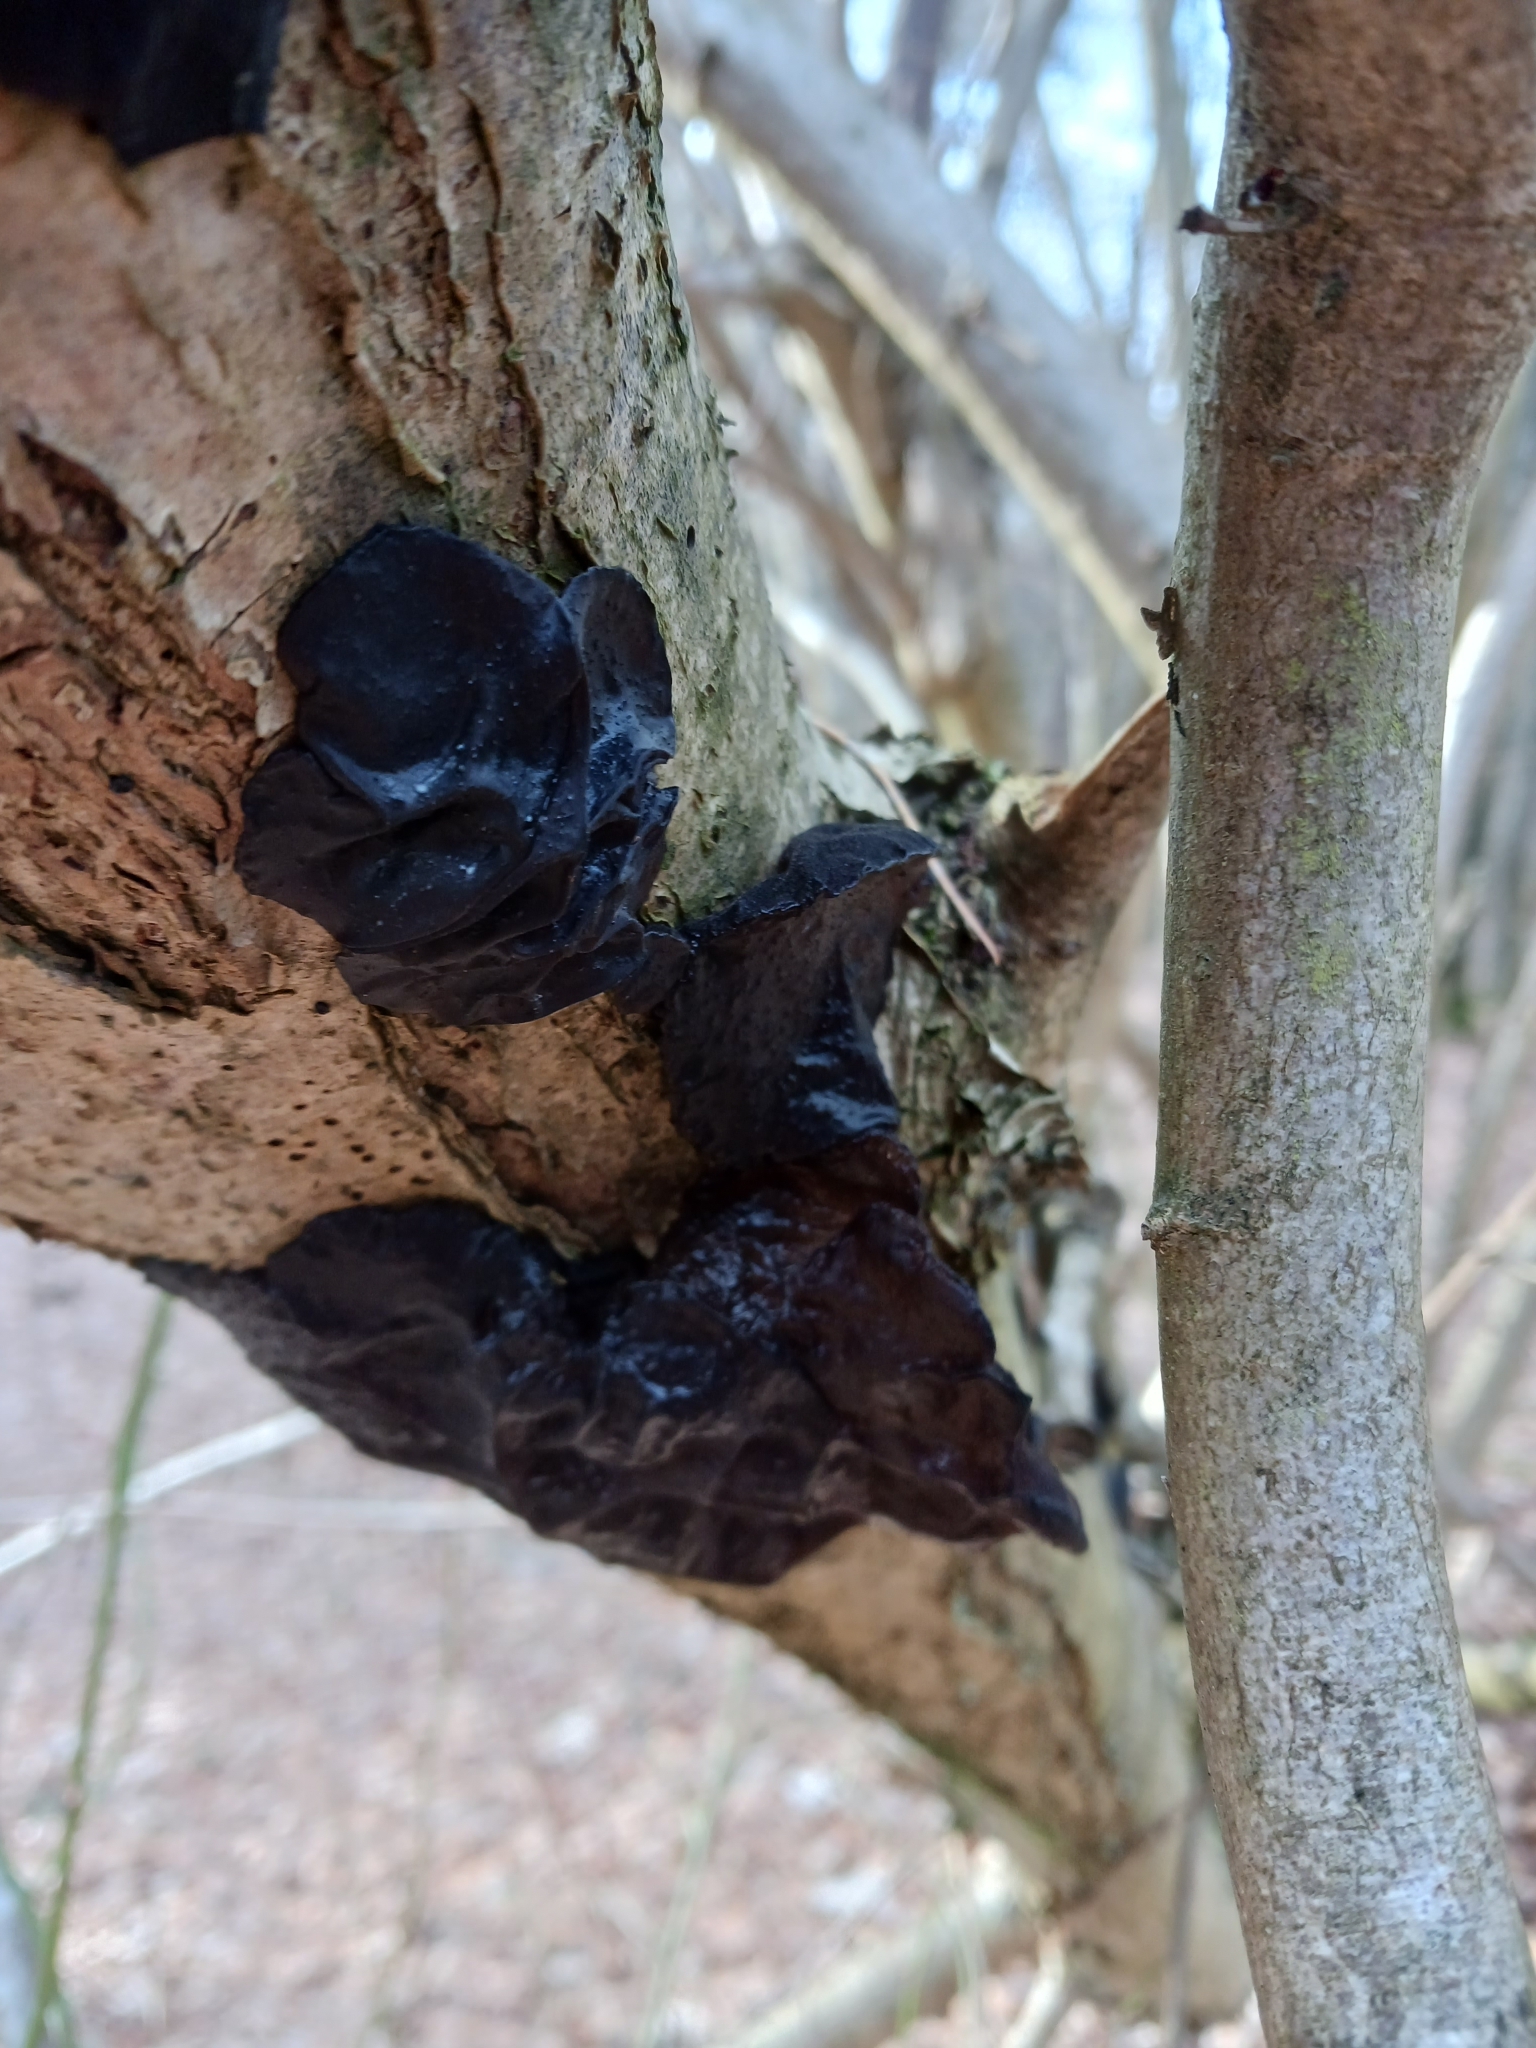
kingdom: Fungi
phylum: Basidiomycota
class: Agaricomycetes
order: Auriculariales
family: Auriculariaceae
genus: Exidia
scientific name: Exidia glandulosa
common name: Witches' butter
